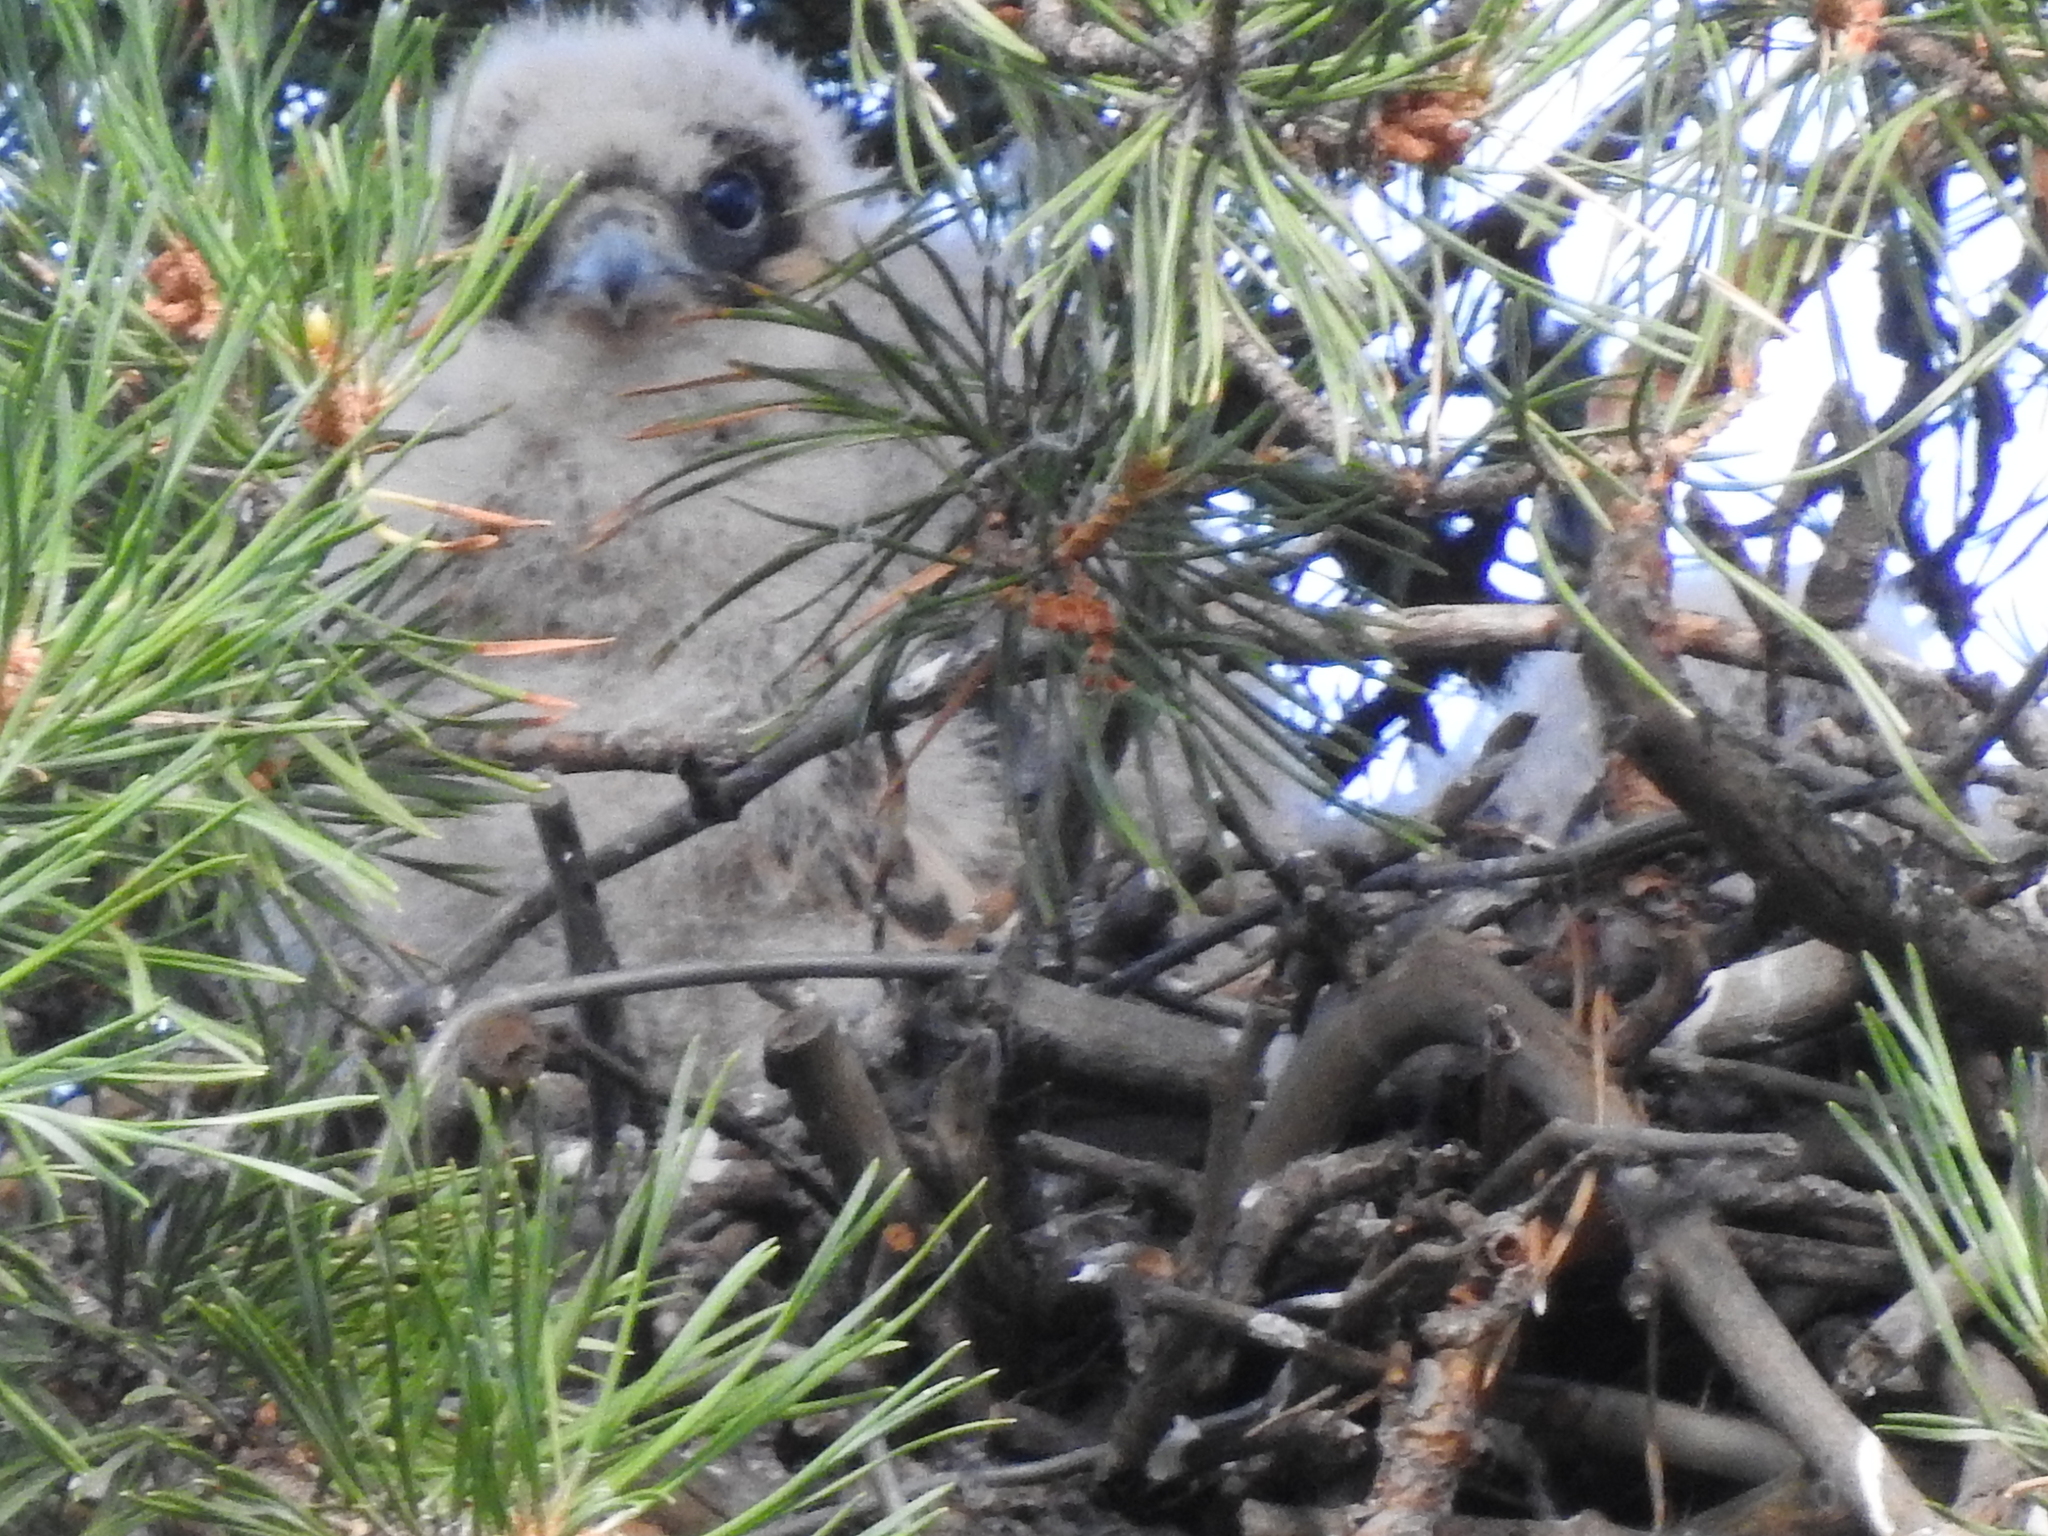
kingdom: Animalia
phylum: Chordata
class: Aves
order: Falconiformes
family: Falconidae
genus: Falco
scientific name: Falco subbuteo
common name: Eurasian hobby
